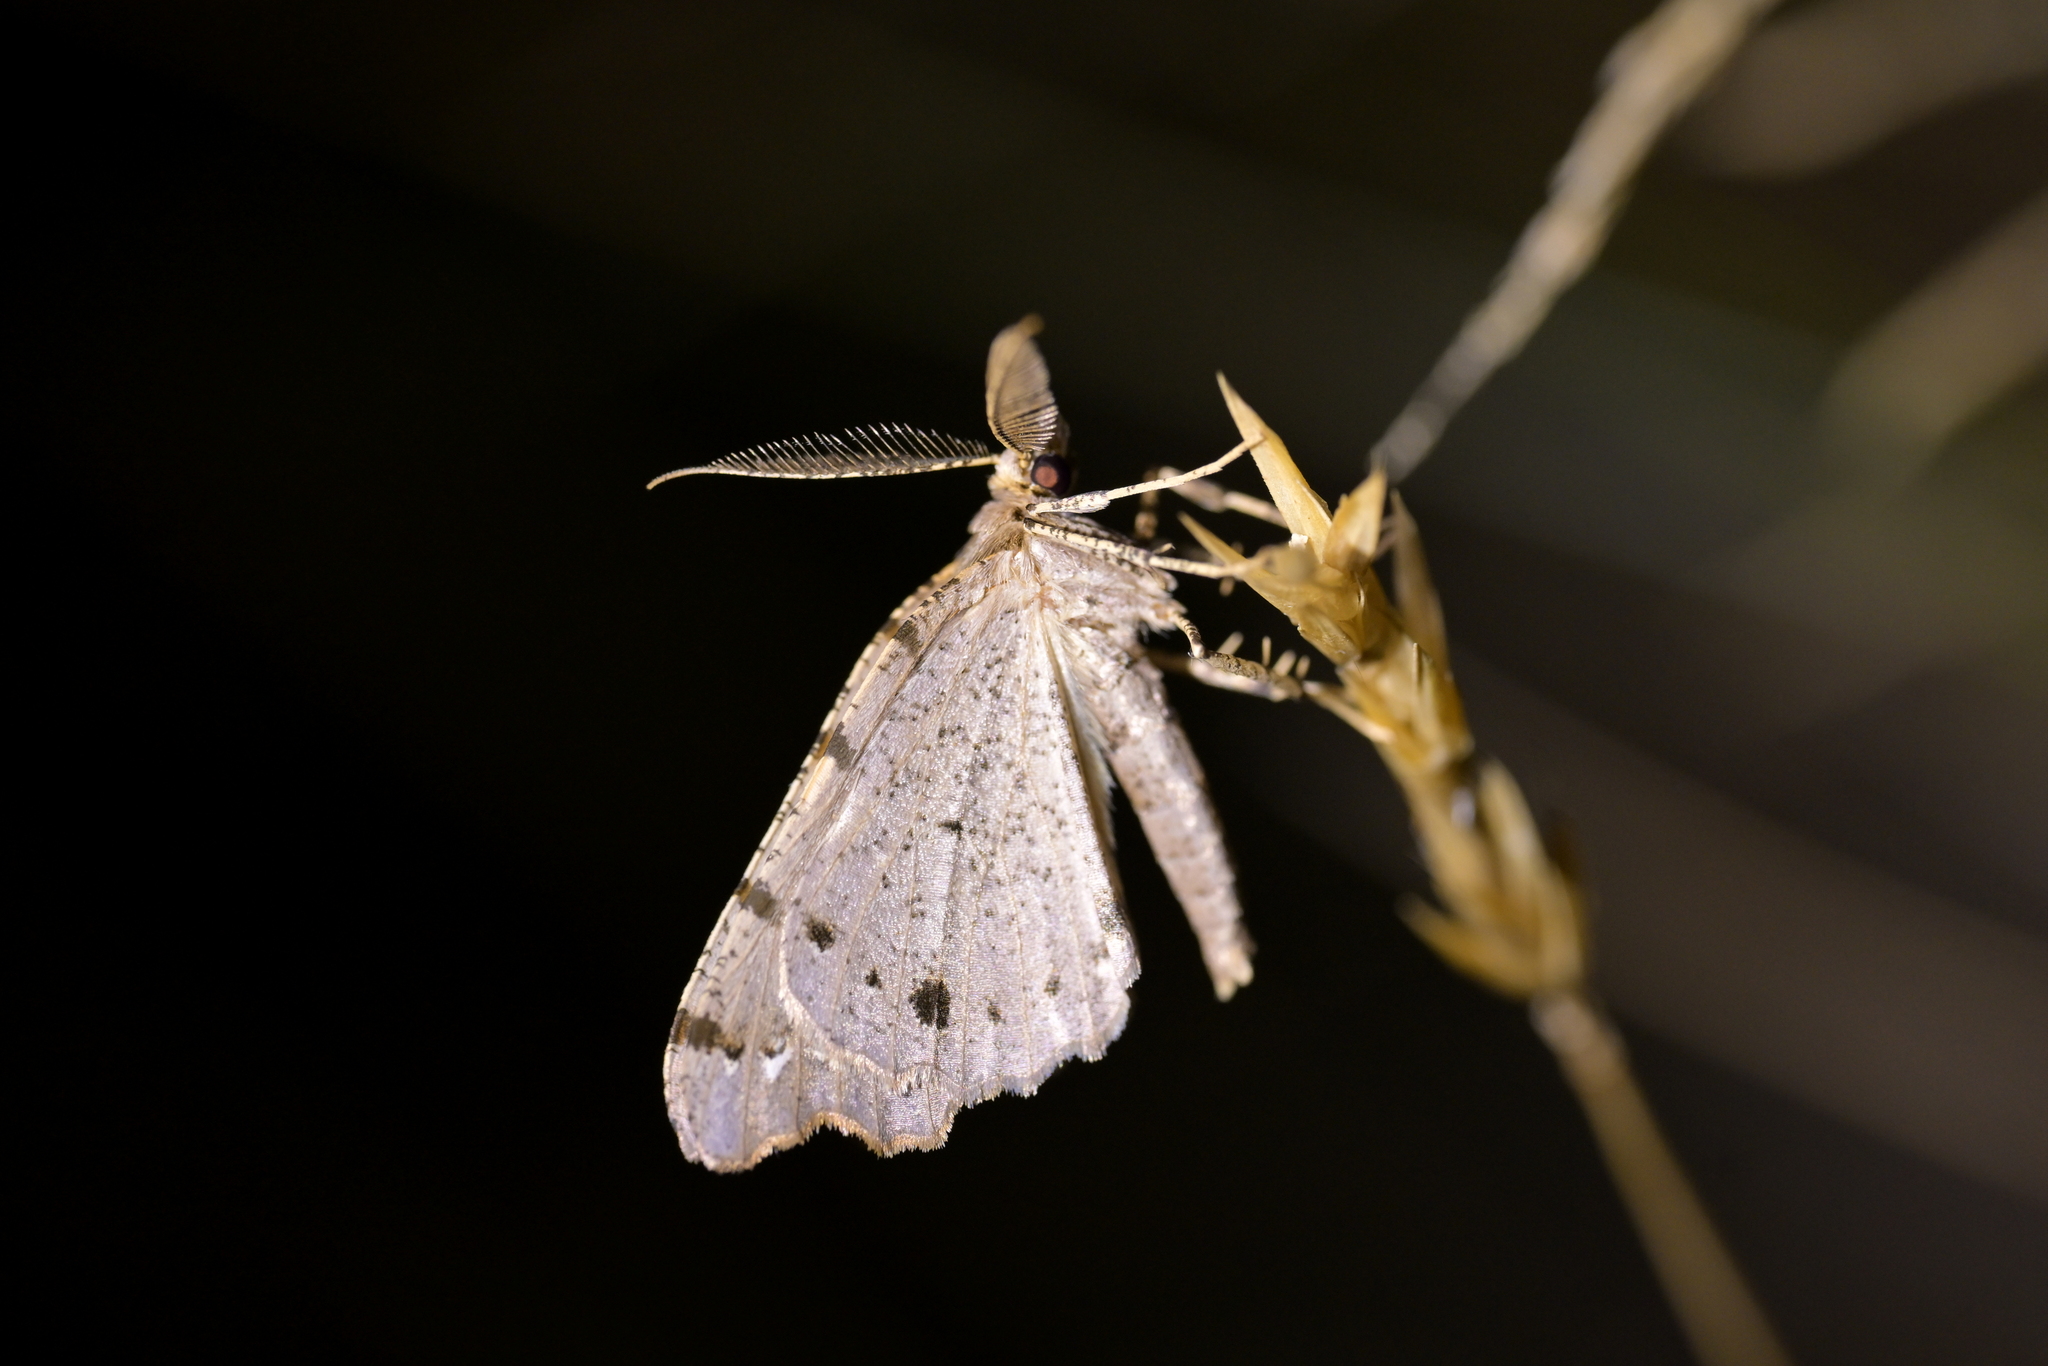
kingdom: Animalia
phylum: Arthropoda
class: Insecta
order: Lepidoptera
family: Geometridae
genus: Chalastra
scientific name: Chalastra pellurgata
